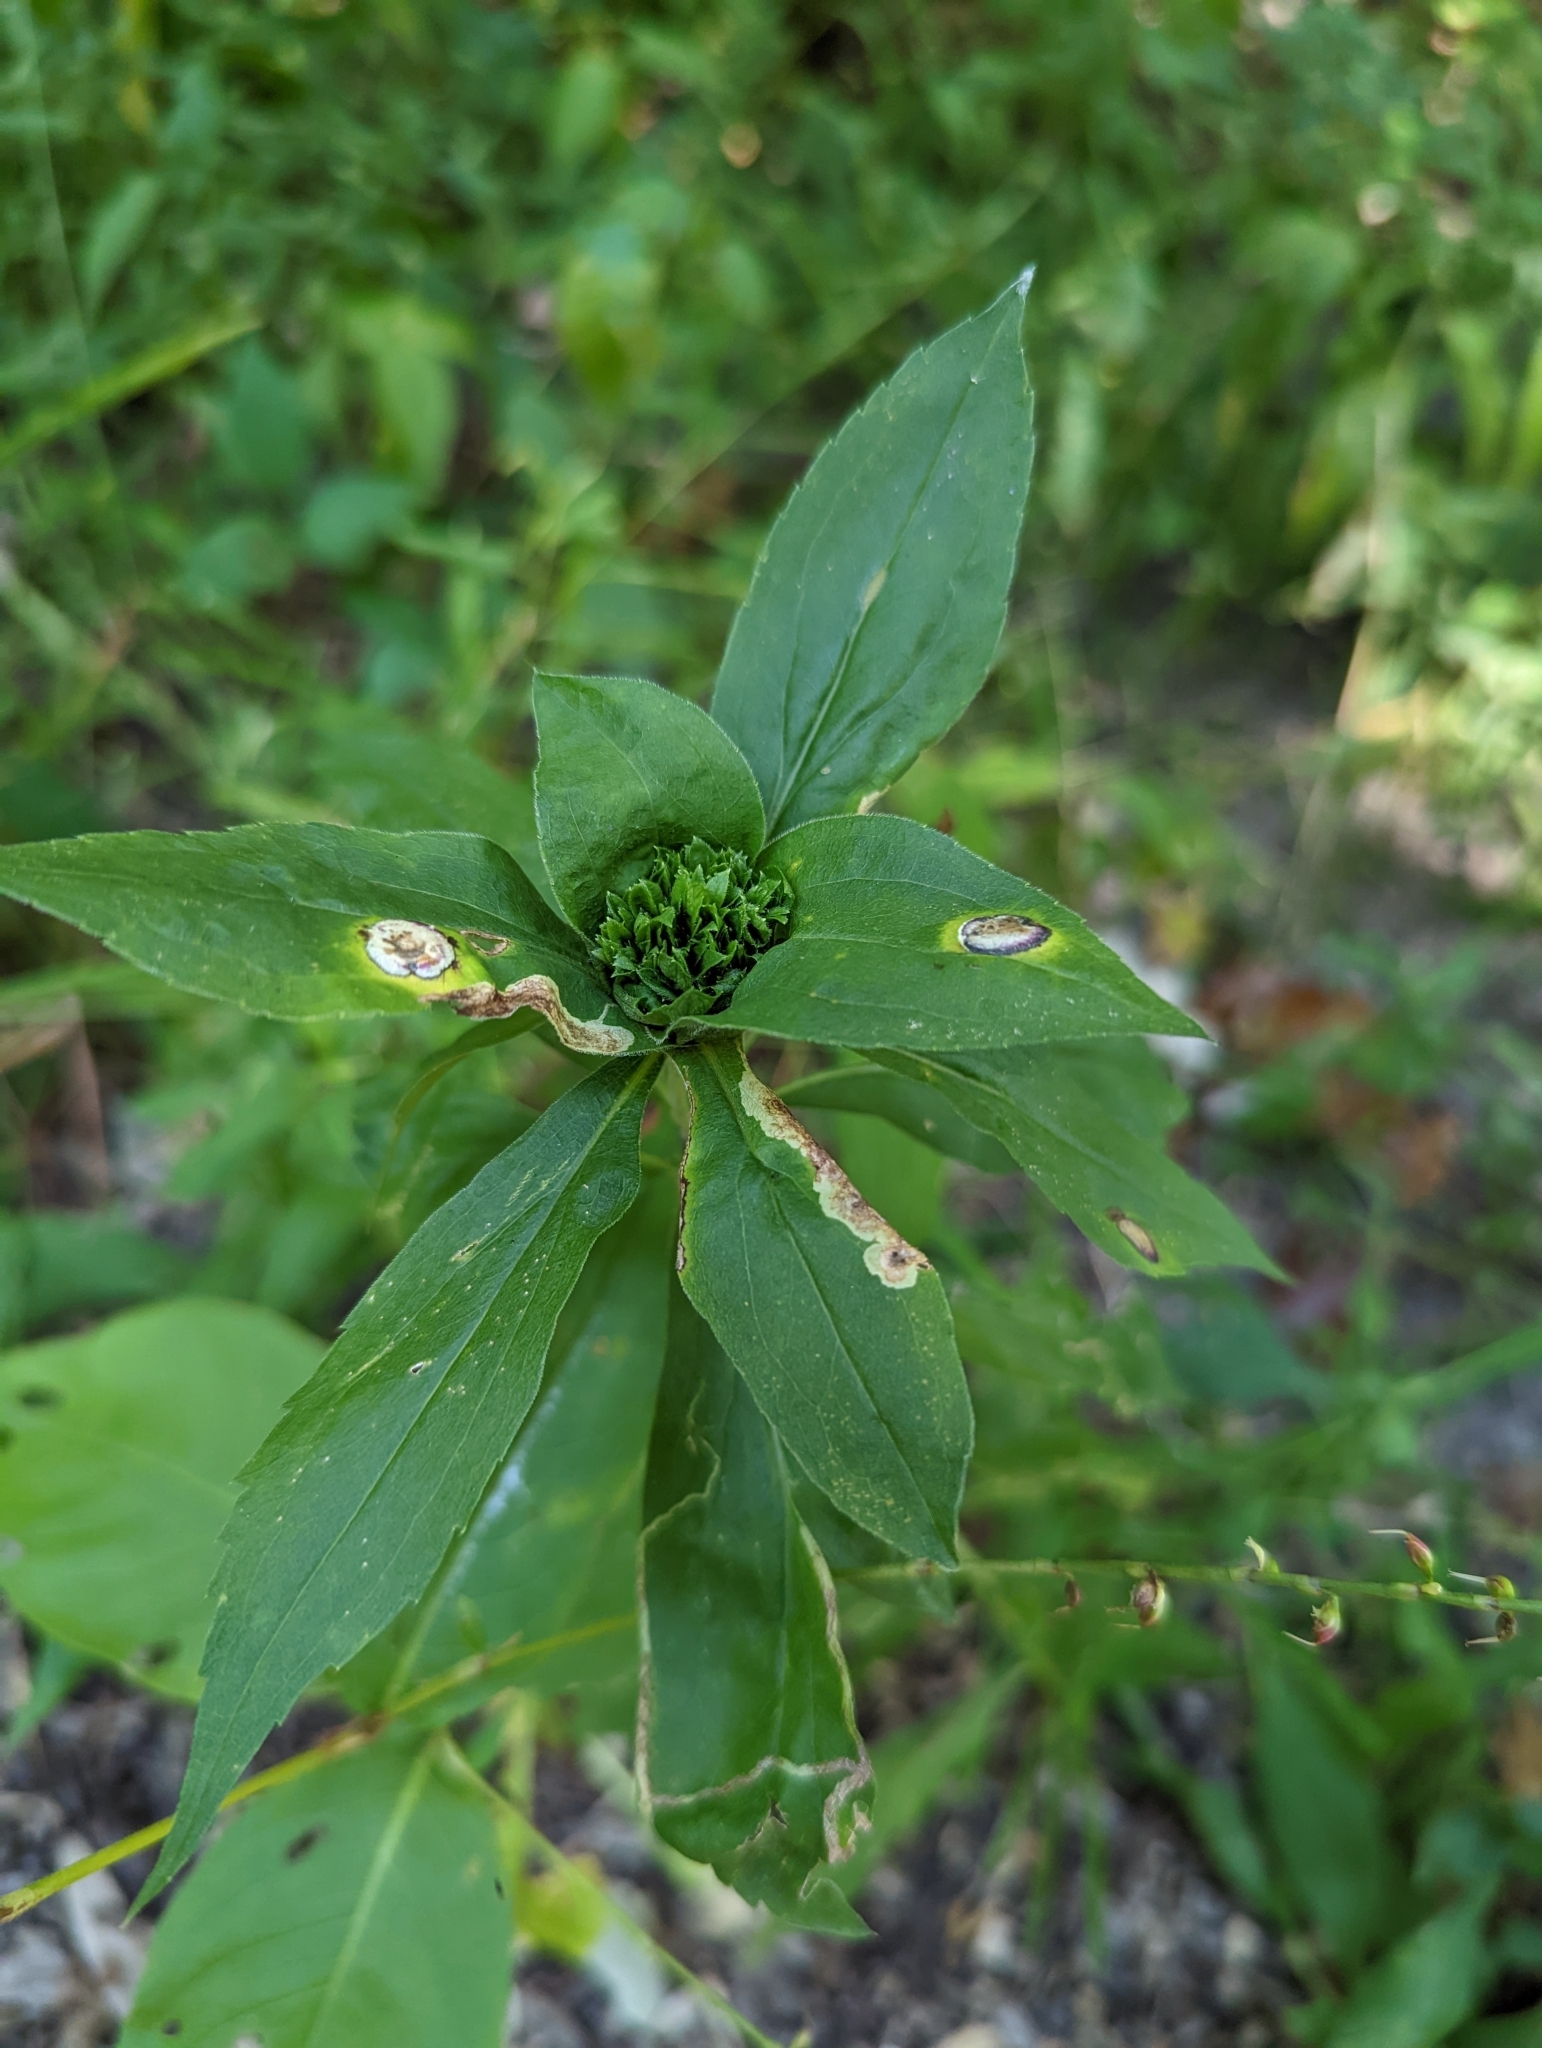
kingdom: Animalia
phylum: Arthropoda
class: Insecta
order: Diptera
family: Cecidomyiidae
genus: Rhopalomyia
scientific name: Rhopalomyia capitata
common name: Giant goldenrod bunch gall midge
